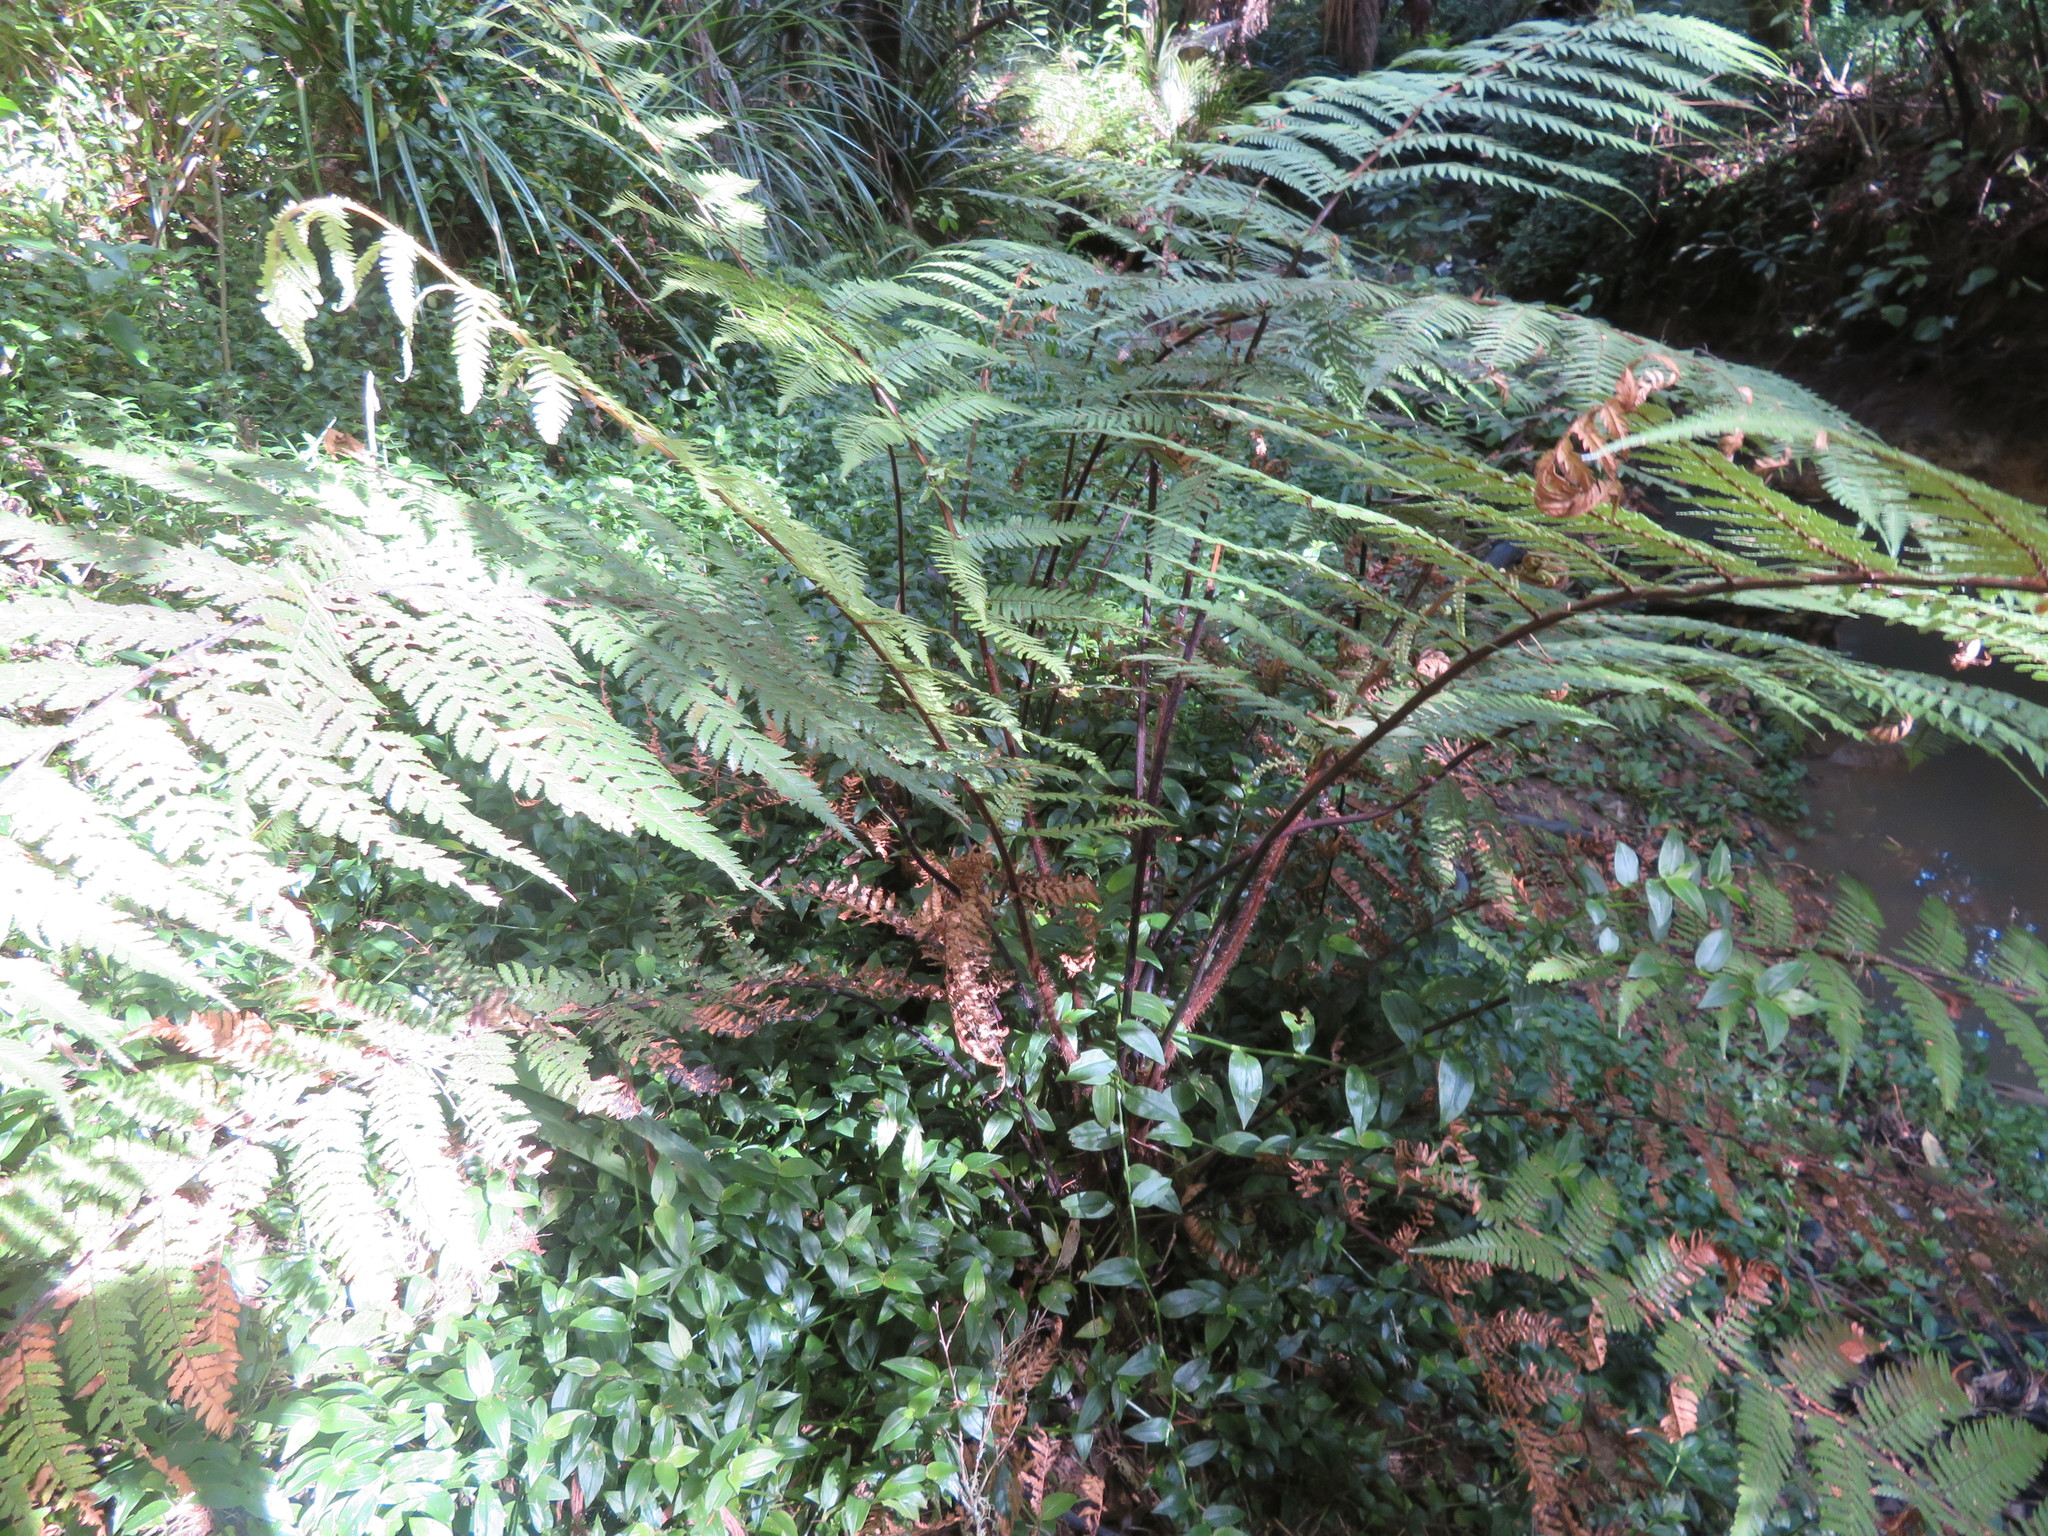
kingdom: Plantae
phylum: Tracheophyta
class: Polypodiopsida
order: Cyatheales
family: Dicksoniaceae
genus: Dicksonia
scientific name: Dicksonia squarrosa
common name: Hard treefern
